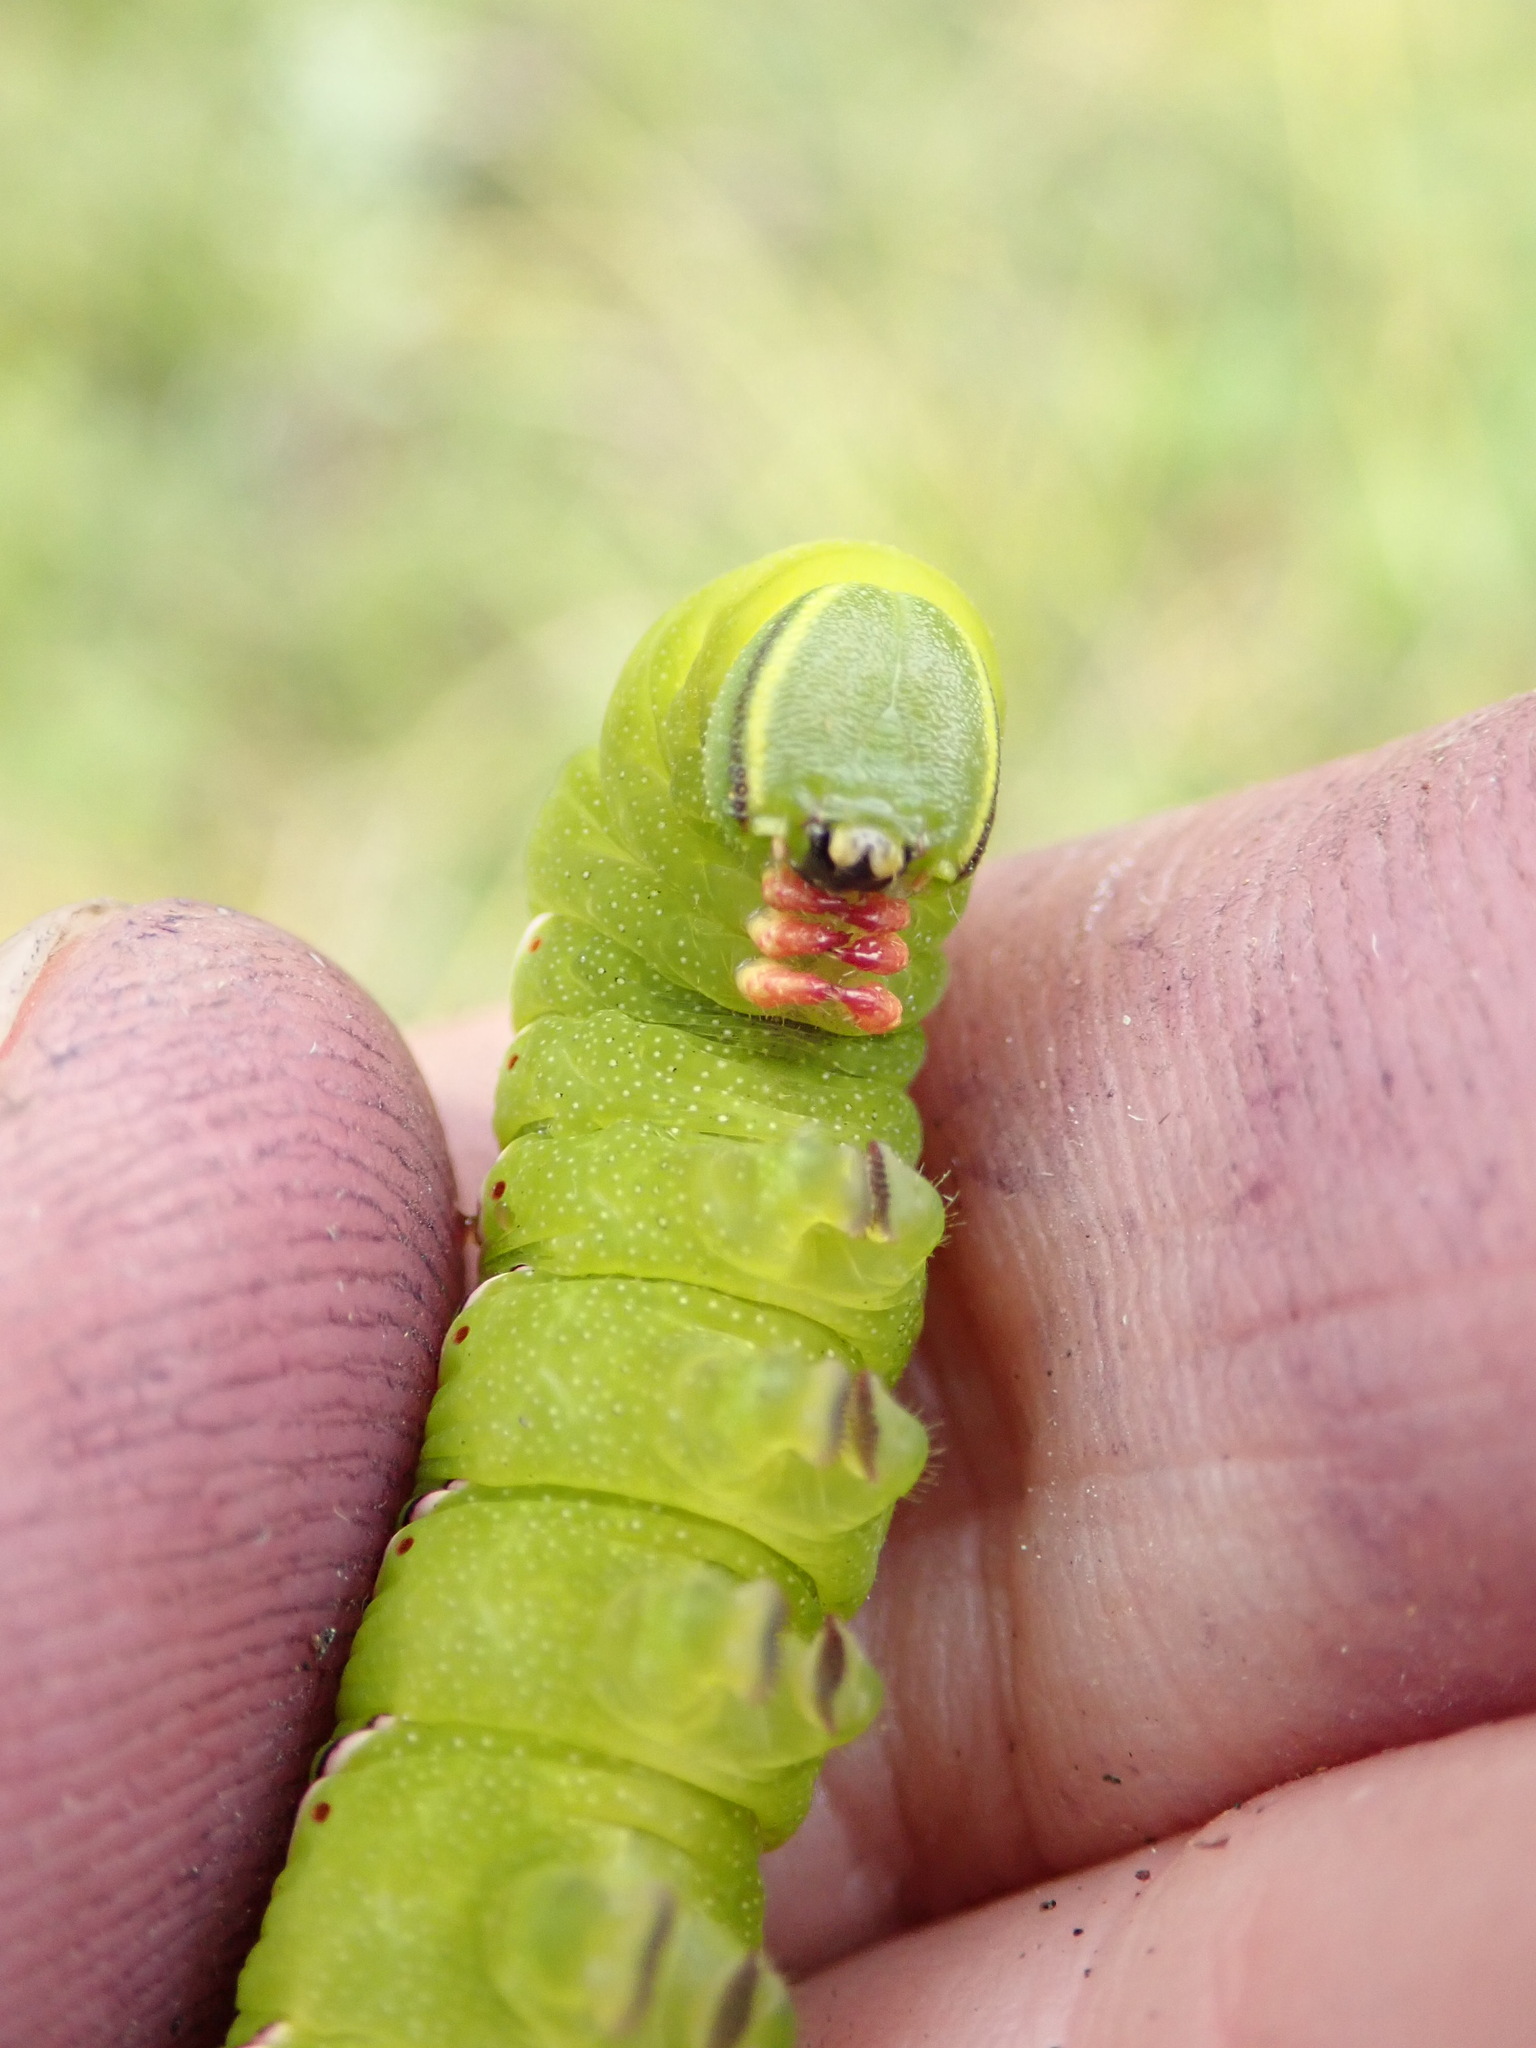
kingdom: Animalia
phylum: Arthropoda
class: Insecta
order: Lepidoptera
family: Sphingidae
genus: Sphinx
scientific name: Sphinx poecila
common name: Northern apple sphinx
